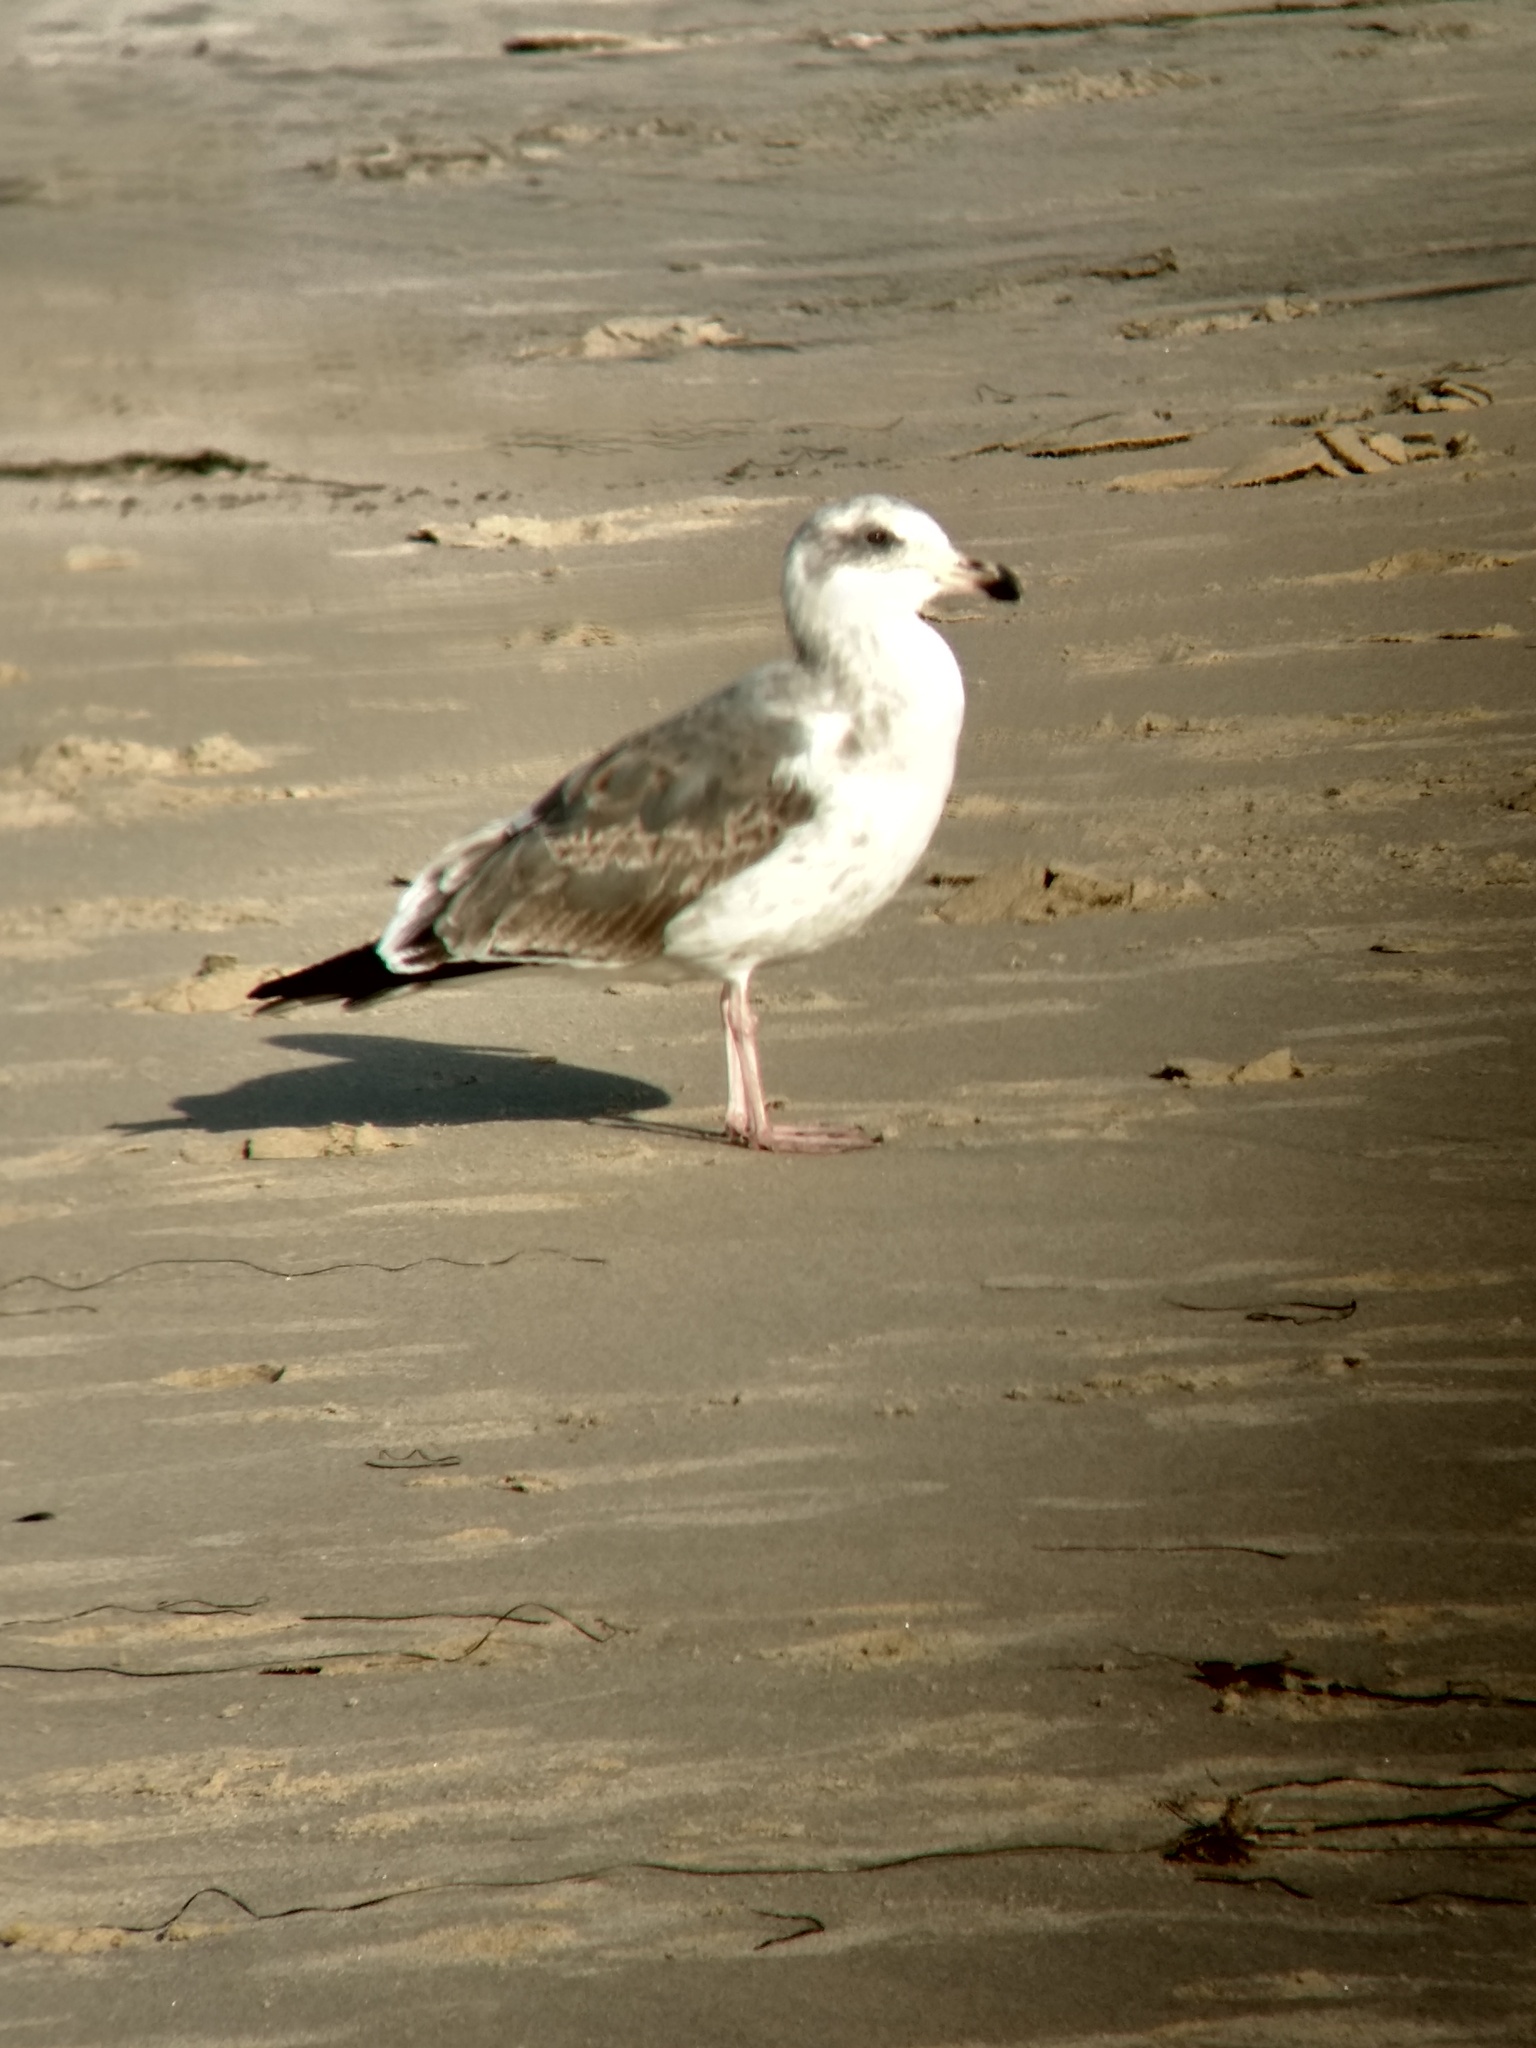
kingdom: Animalia
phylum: Chordata
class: Aves
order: Charadriiformes
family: Laridae
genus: Larus
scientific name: Larus occidentalis
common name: Western gull
